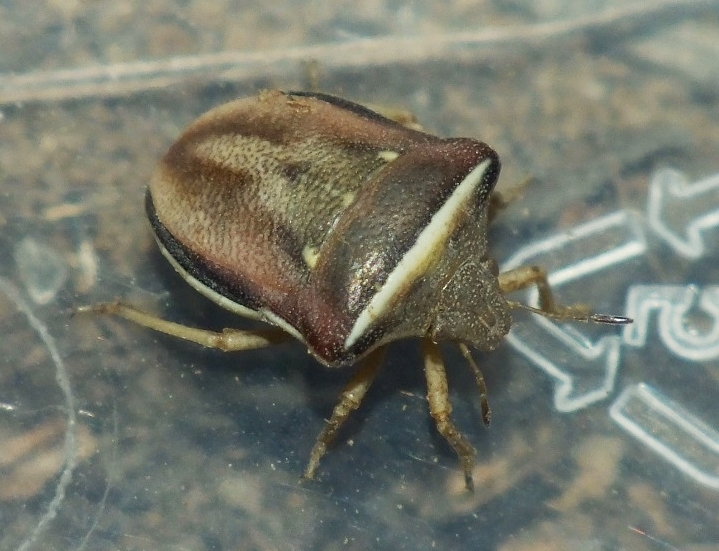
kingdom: Animalia
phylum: Arthropoda
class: Insecta
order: Hemiptera
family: Pentatomidae
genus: Ventocoris
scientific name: Ventocoris halophilum
